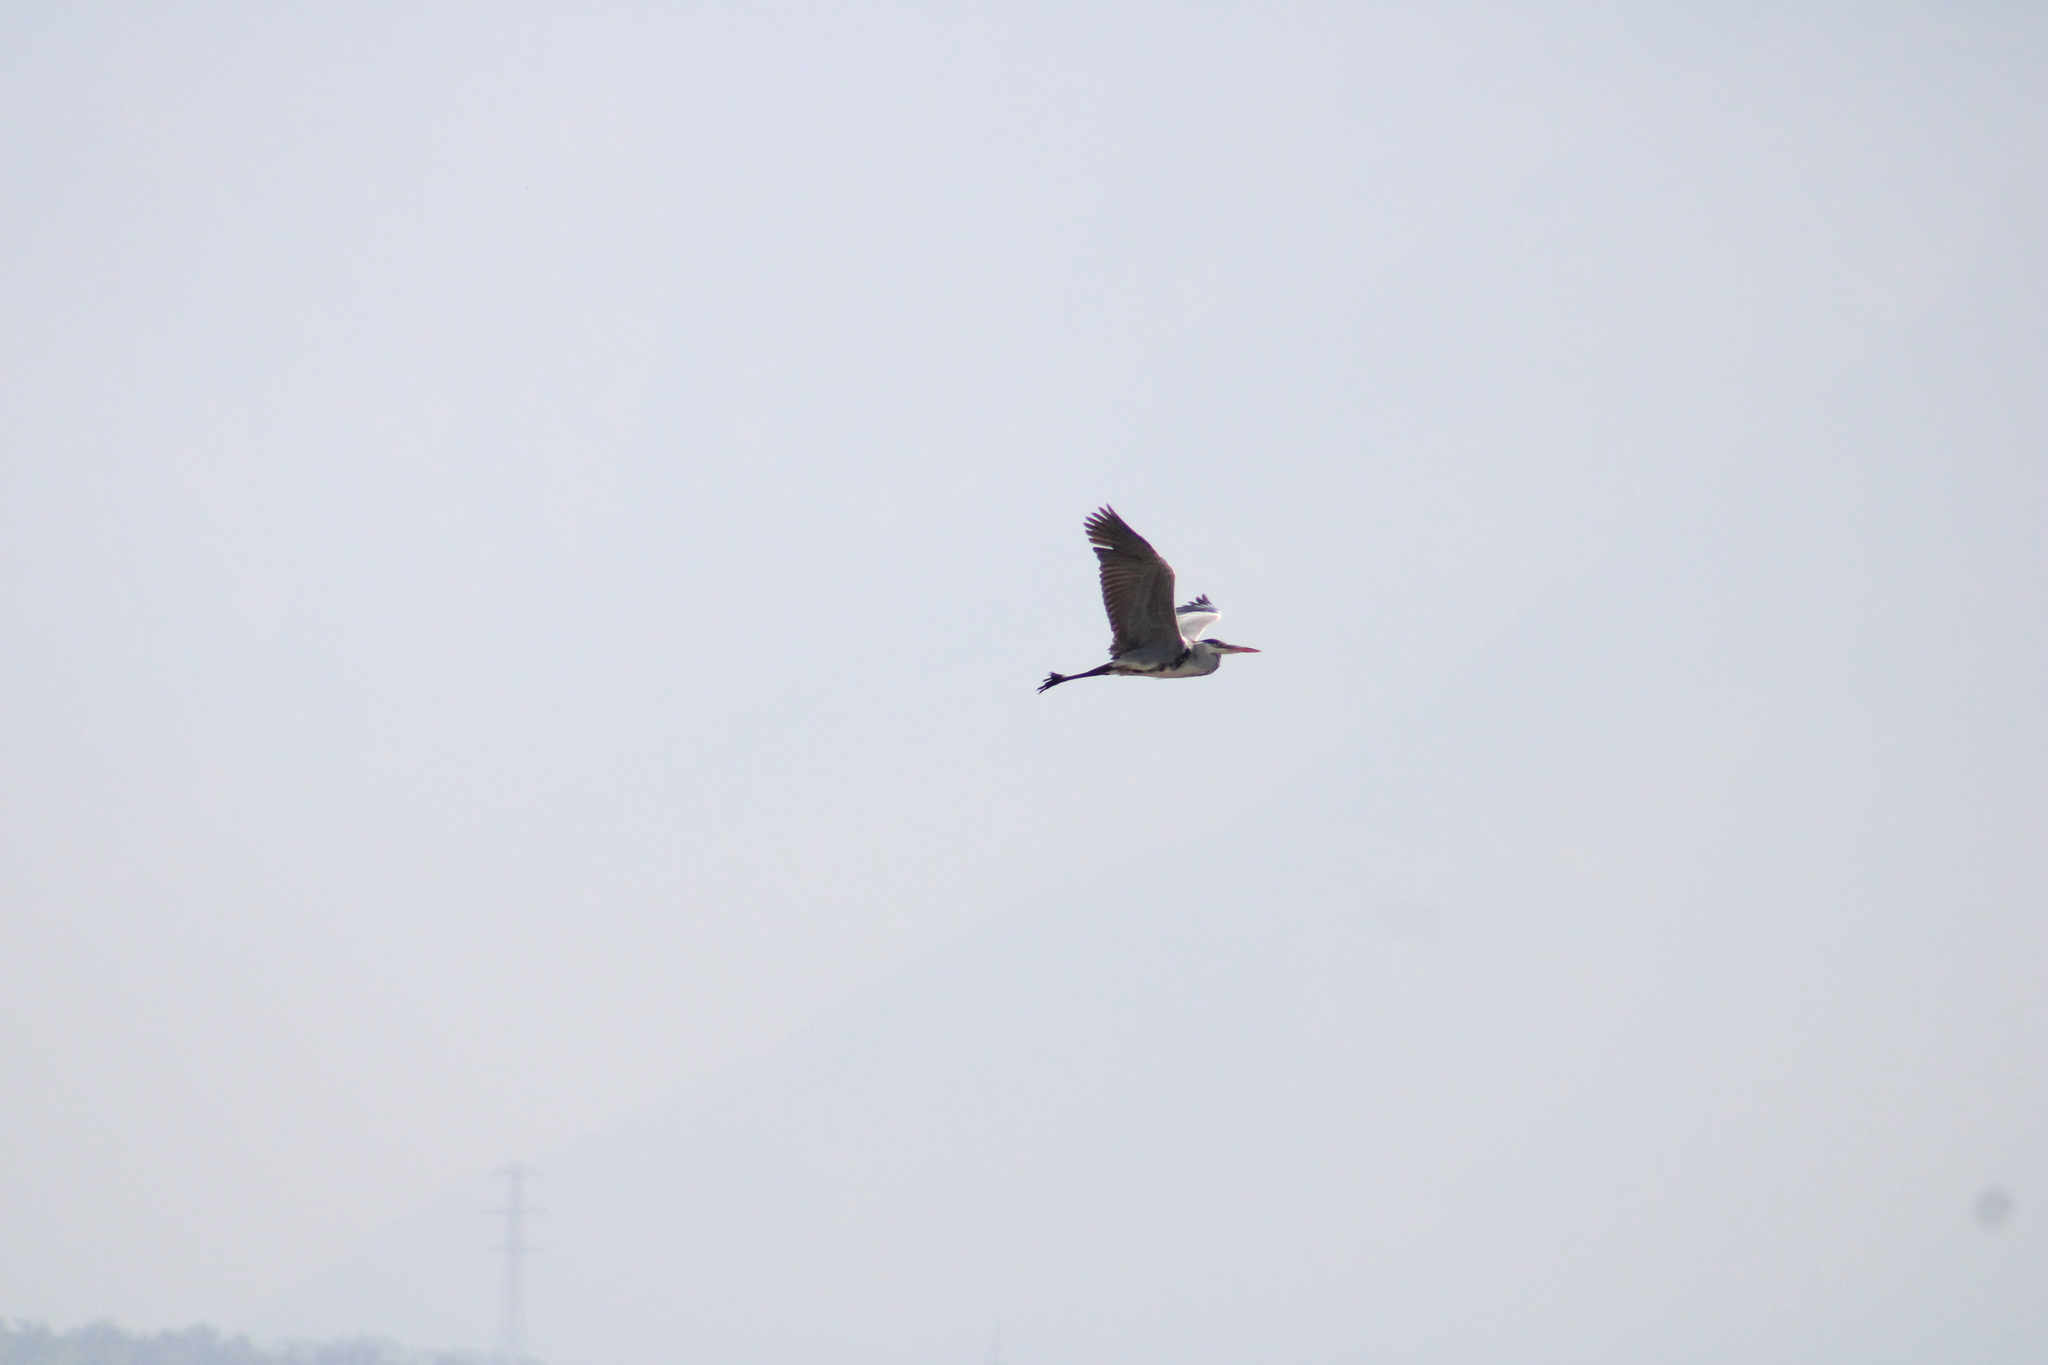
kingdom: Animalia
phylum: Chordata
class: Aves
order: Pelecaniformes
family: Ardeidae
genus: Ardea
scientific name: Ardea cocoi
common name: Cocoi heron
